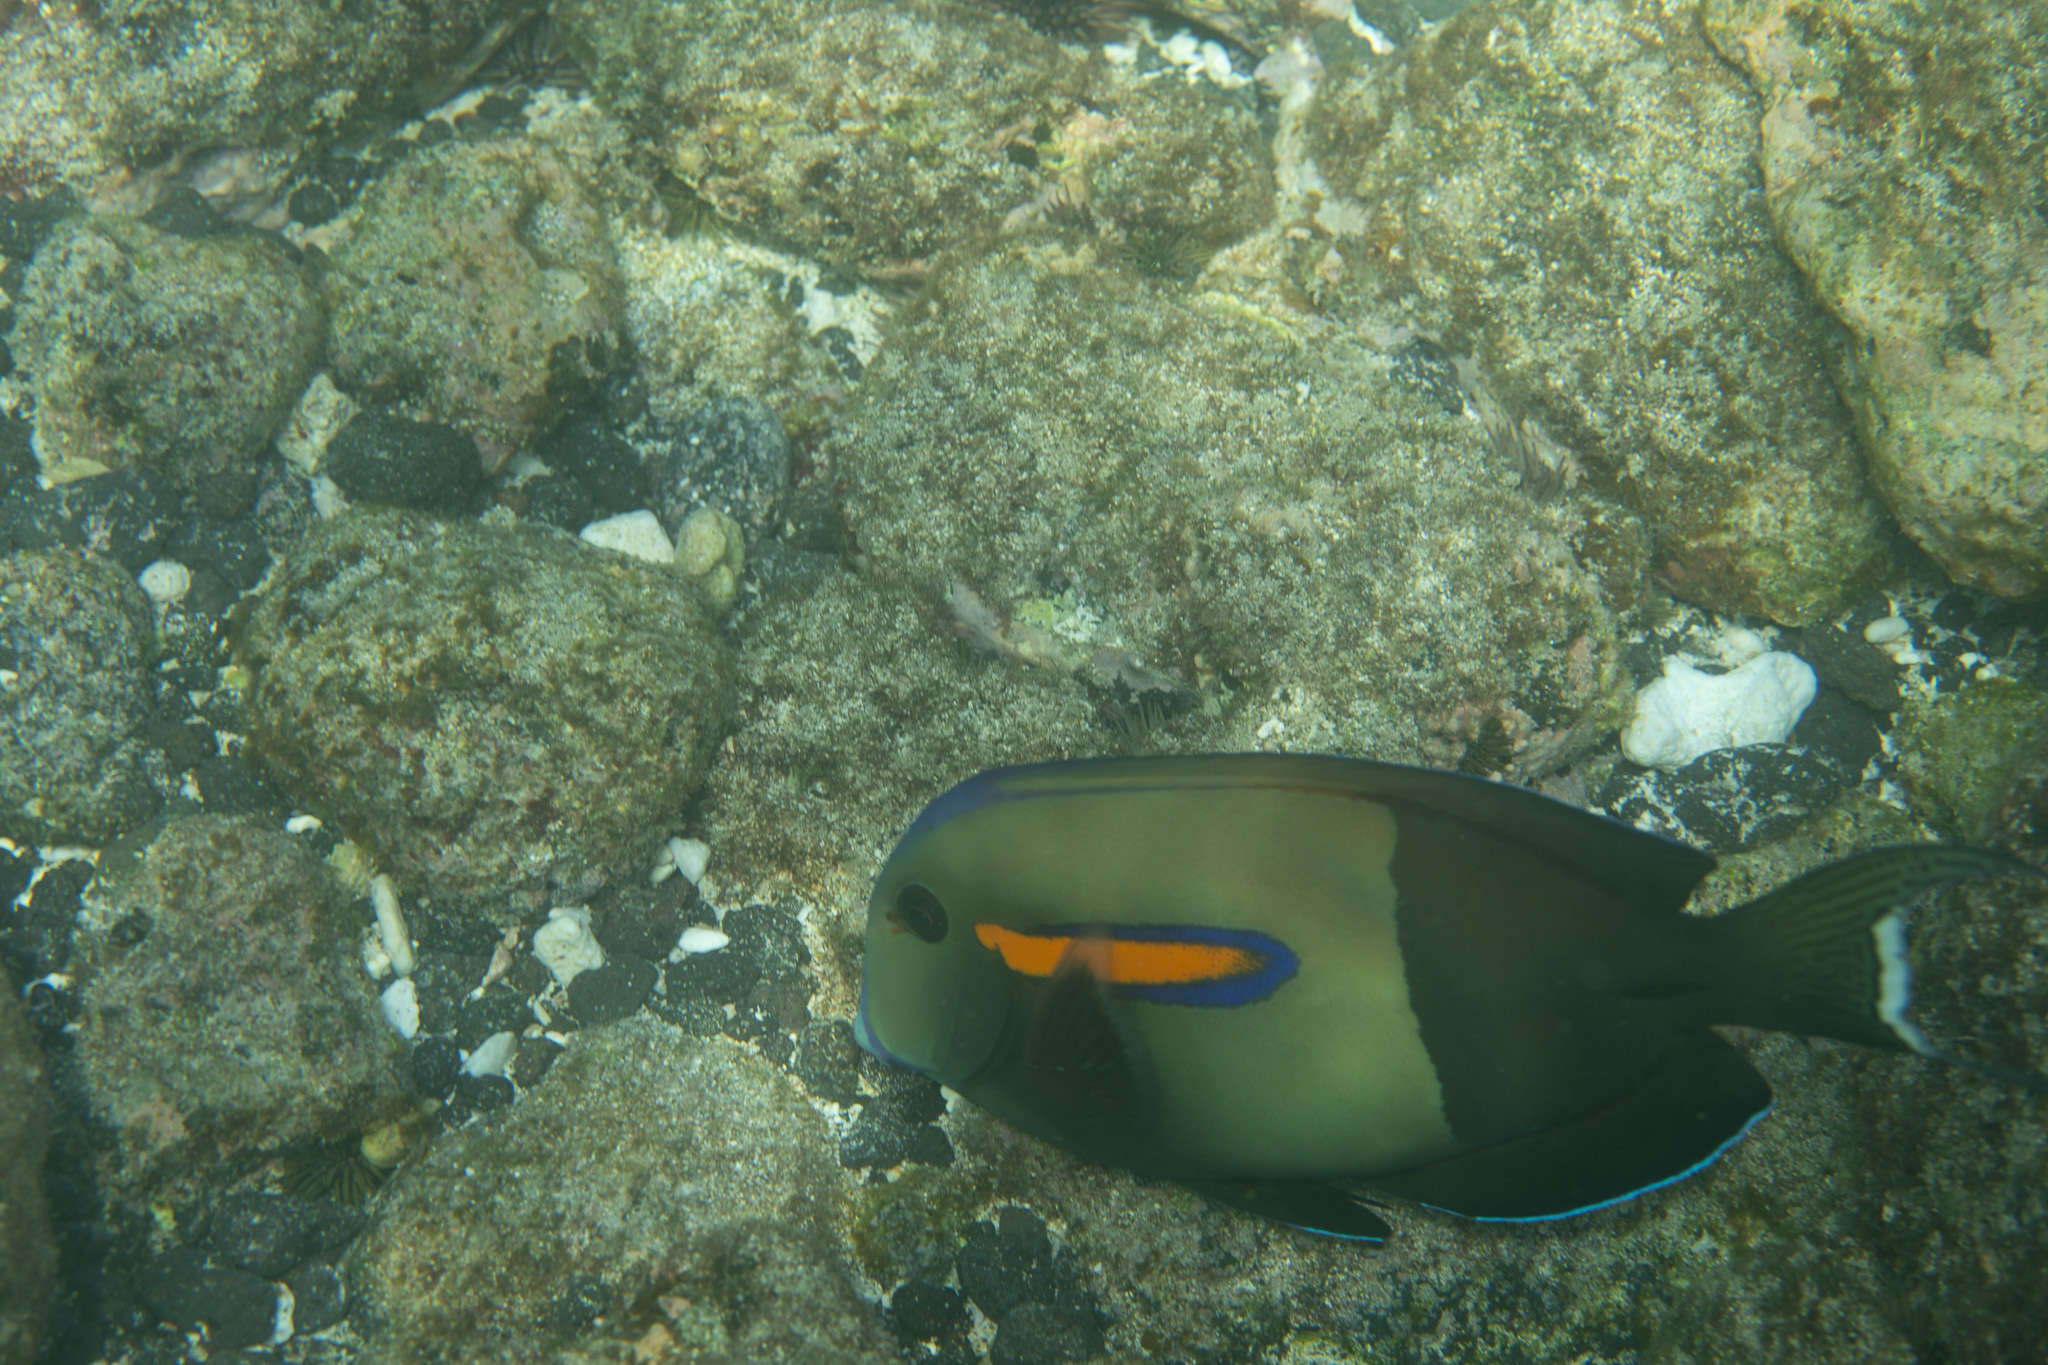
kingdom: Animalia
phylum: Chordata
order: Perciformes
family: Acanthuridae
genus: Acanthurus
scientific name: Acanthurus olivaceus
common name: Gendarme fish
